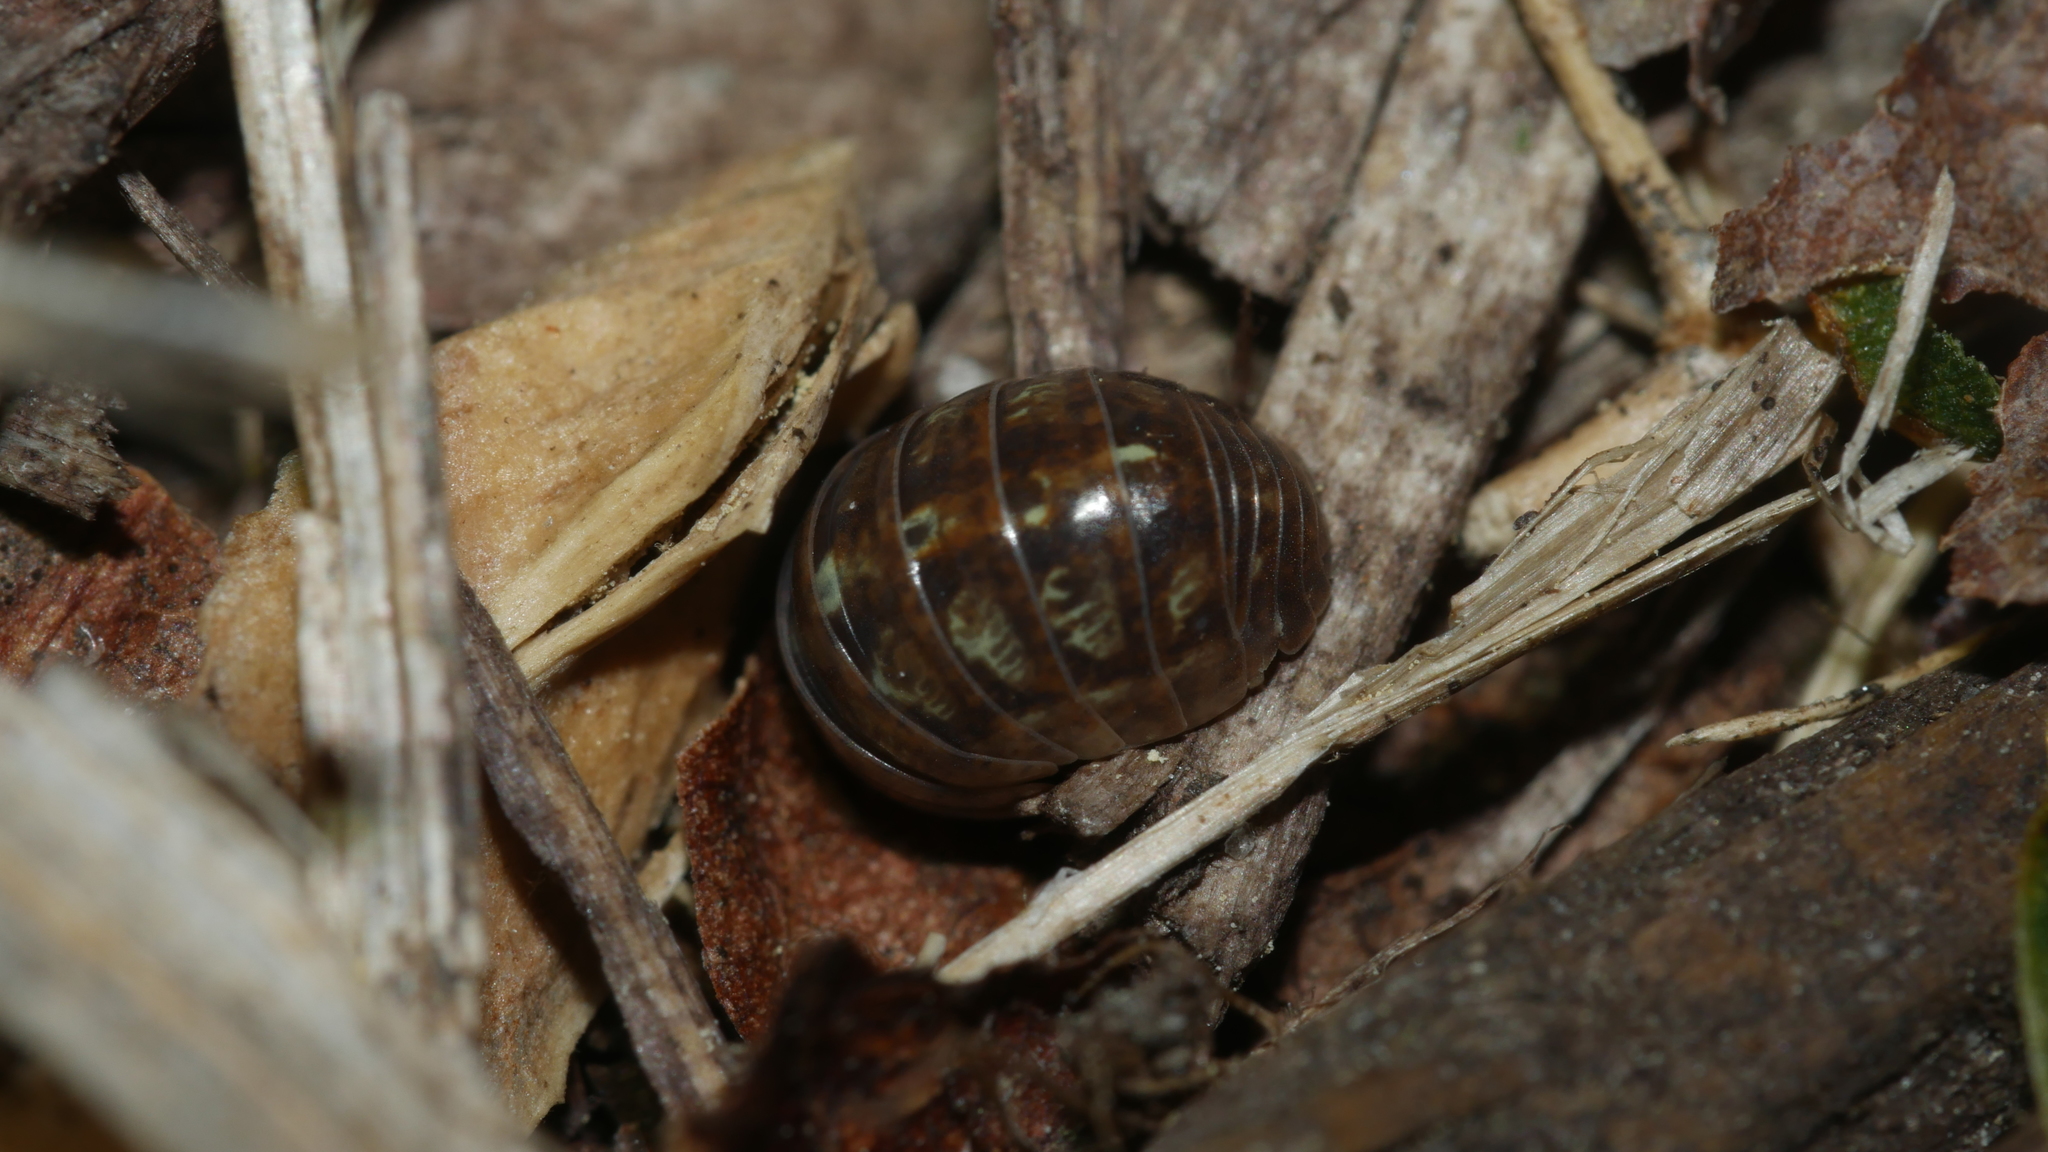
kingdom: Animalia
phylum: Arthropoda
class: Malacostraca
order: Isopoda
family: Armadillidiidae
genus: Armadillidium
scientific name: Armadillidium vulgare
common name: Common pill woodlouse
